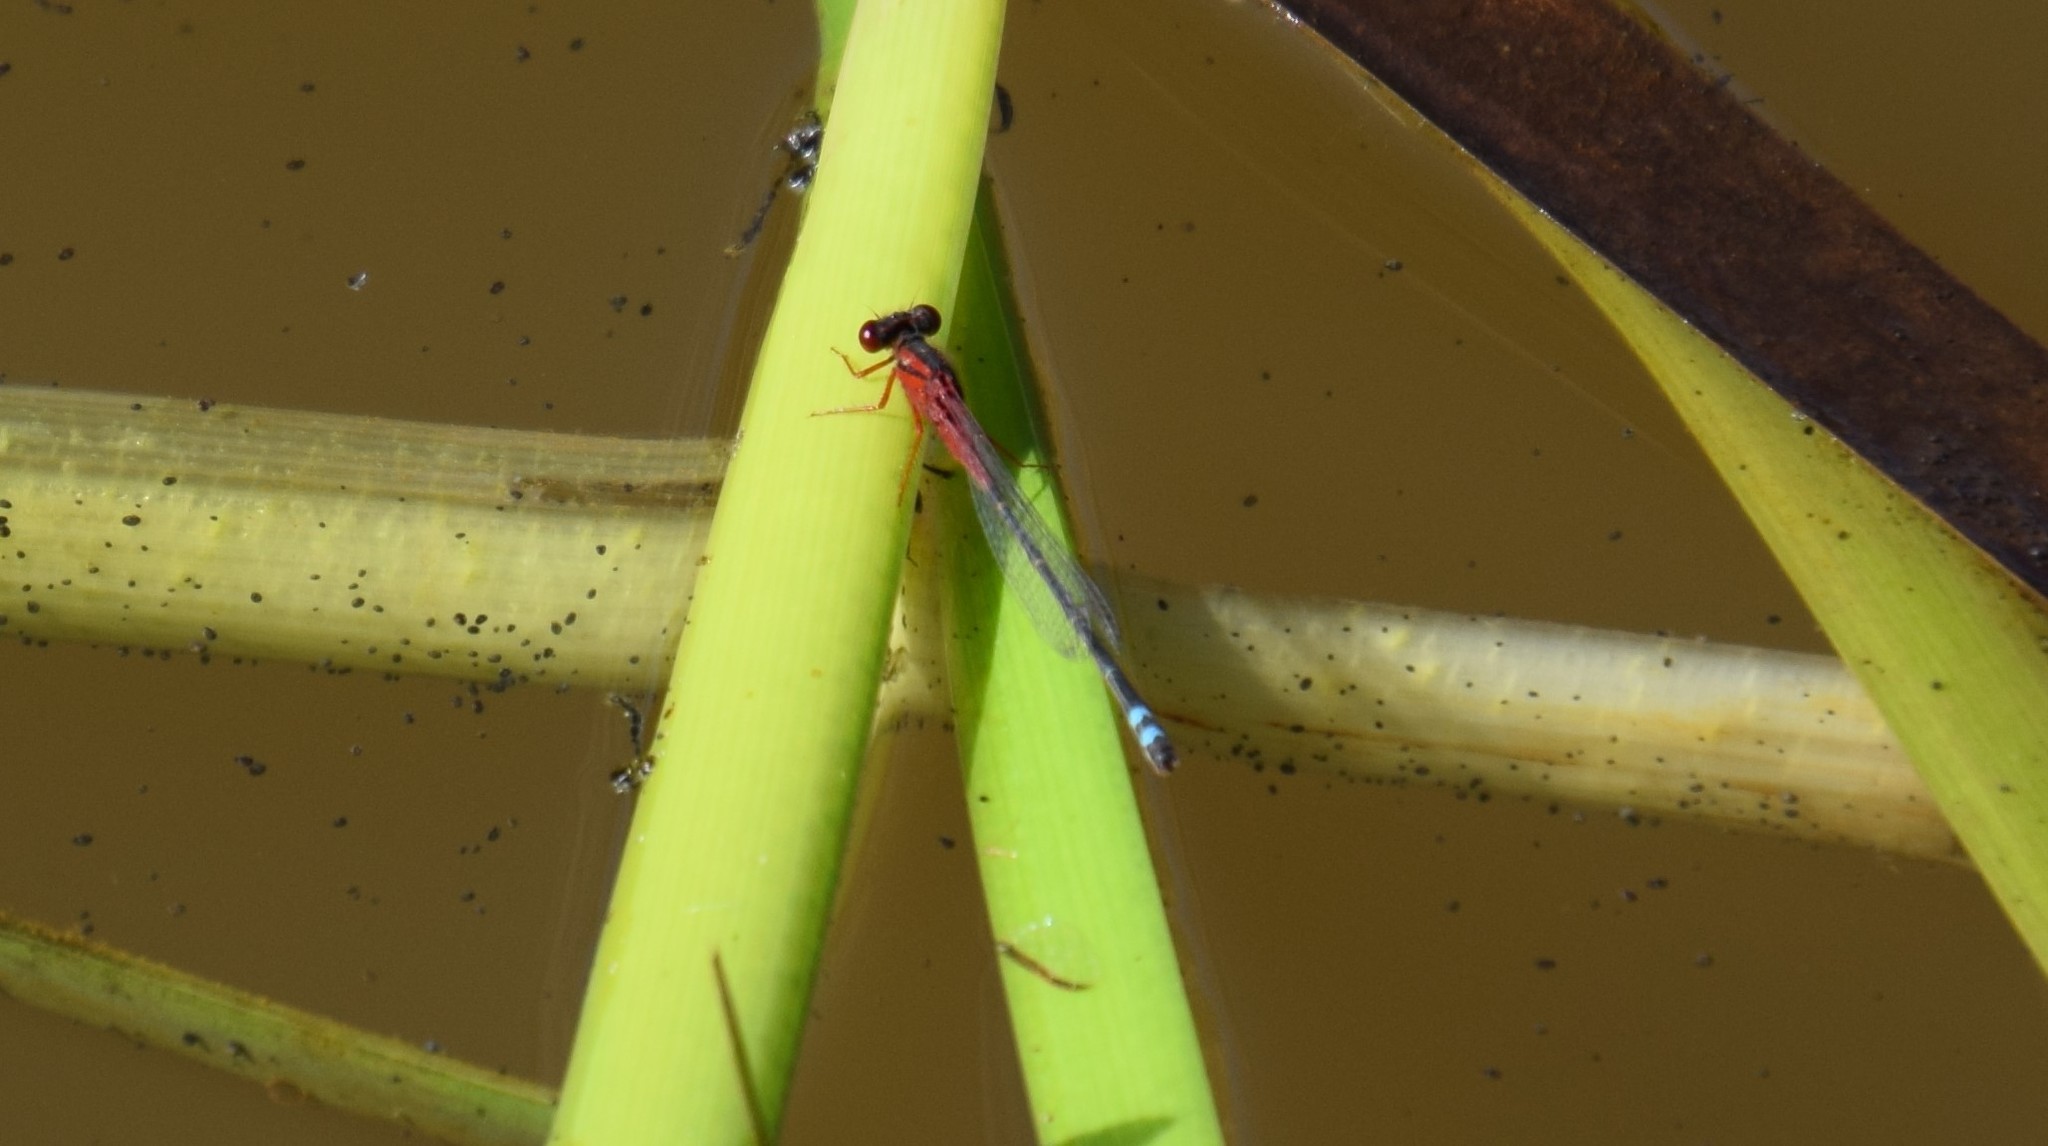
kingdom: Animalia
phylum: Arthropoda
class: Insecta
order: Odonata
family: Coenagrionidae
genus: Xanthagrion
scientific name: Xanthagrion erythroneurum
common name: Red and blue damsel
